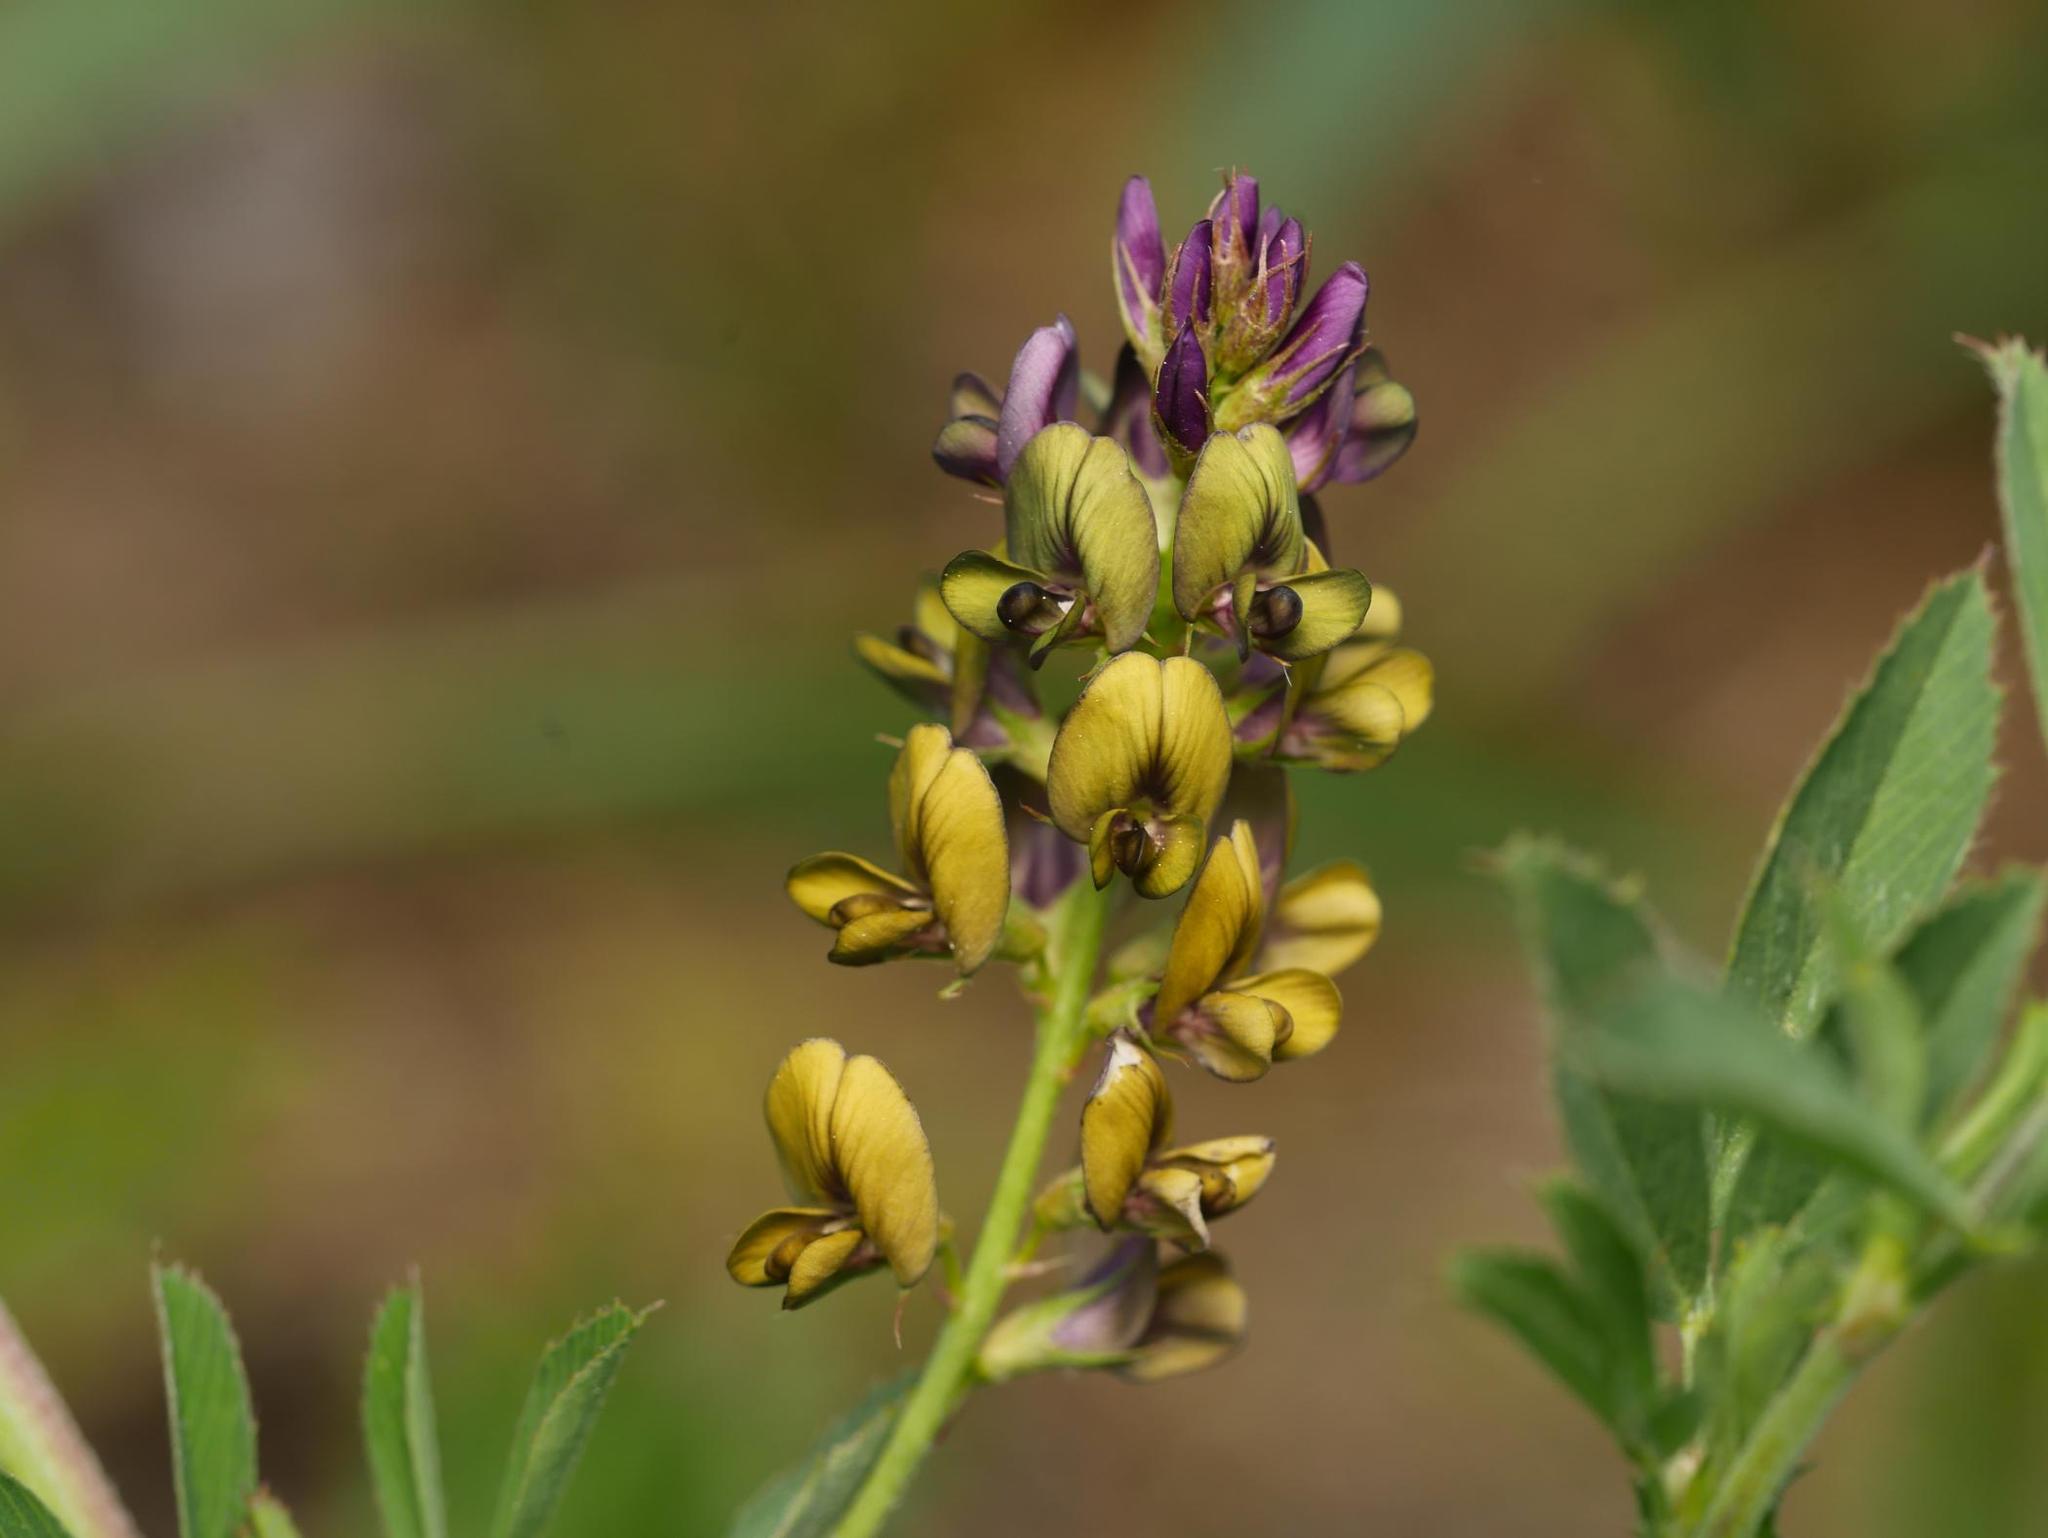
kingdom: Plantae
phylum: Tracheophyta
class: Magnoliopsida
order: Fabales
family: Fabaceae
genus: Medicago
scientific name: Medicago varia
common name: Sand lucerne
